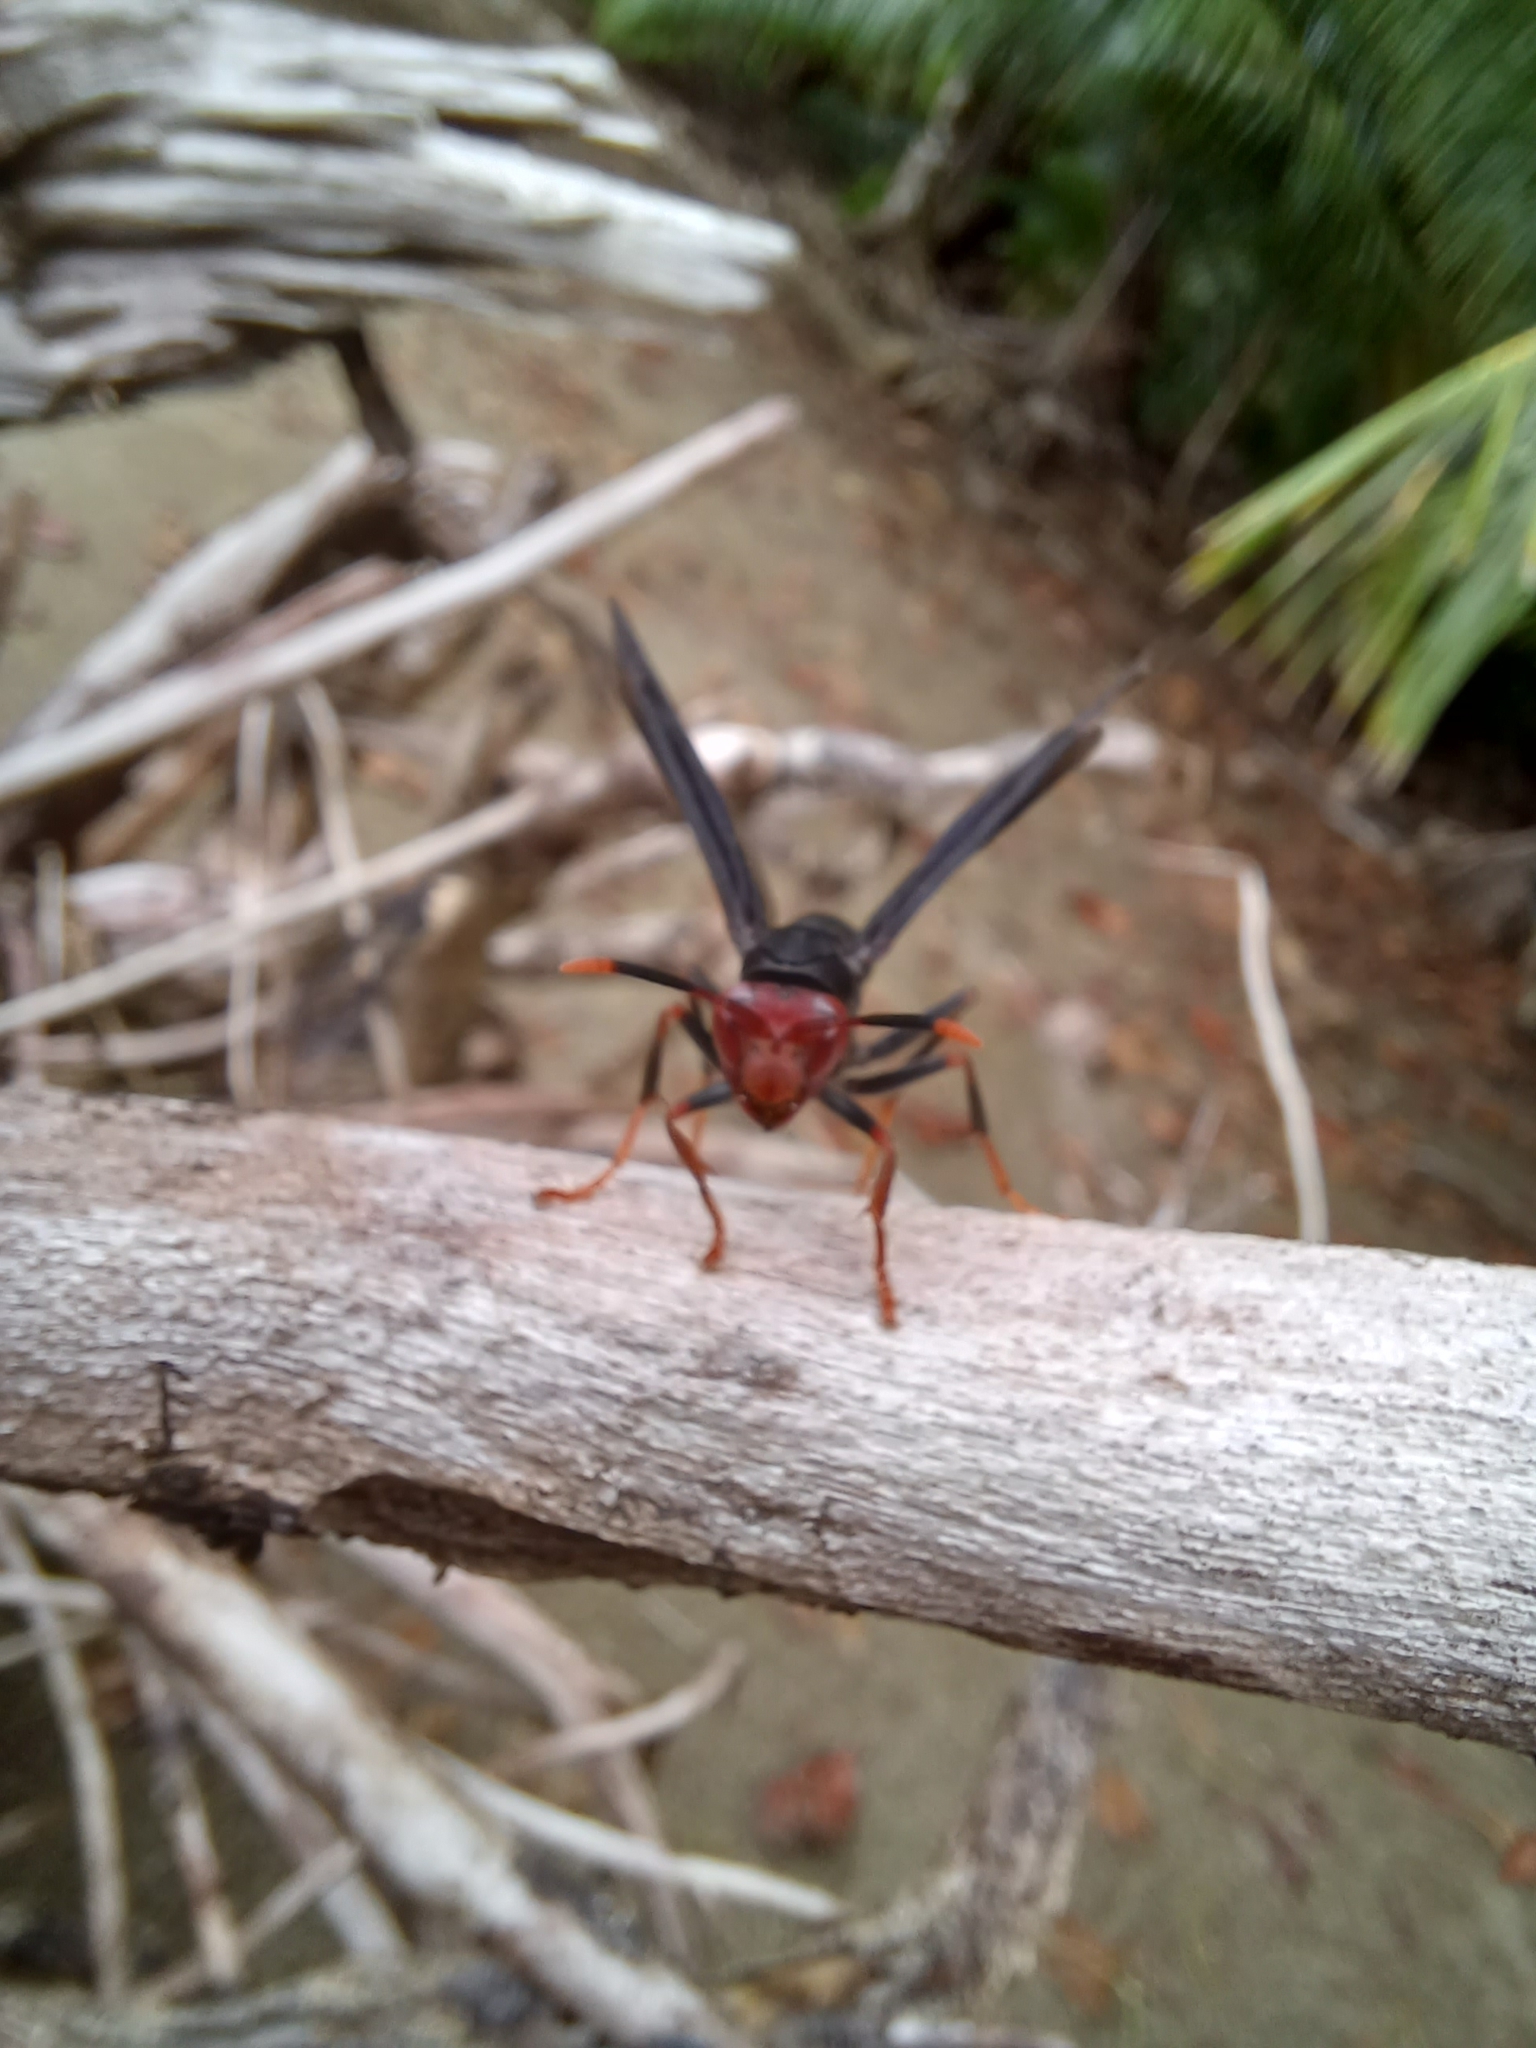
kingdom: Animalia
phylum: Arthropoda
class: Insecta
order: Hymenoptera
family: Eumenidae
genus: Polistes
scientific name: Polistes erythrocephalus
